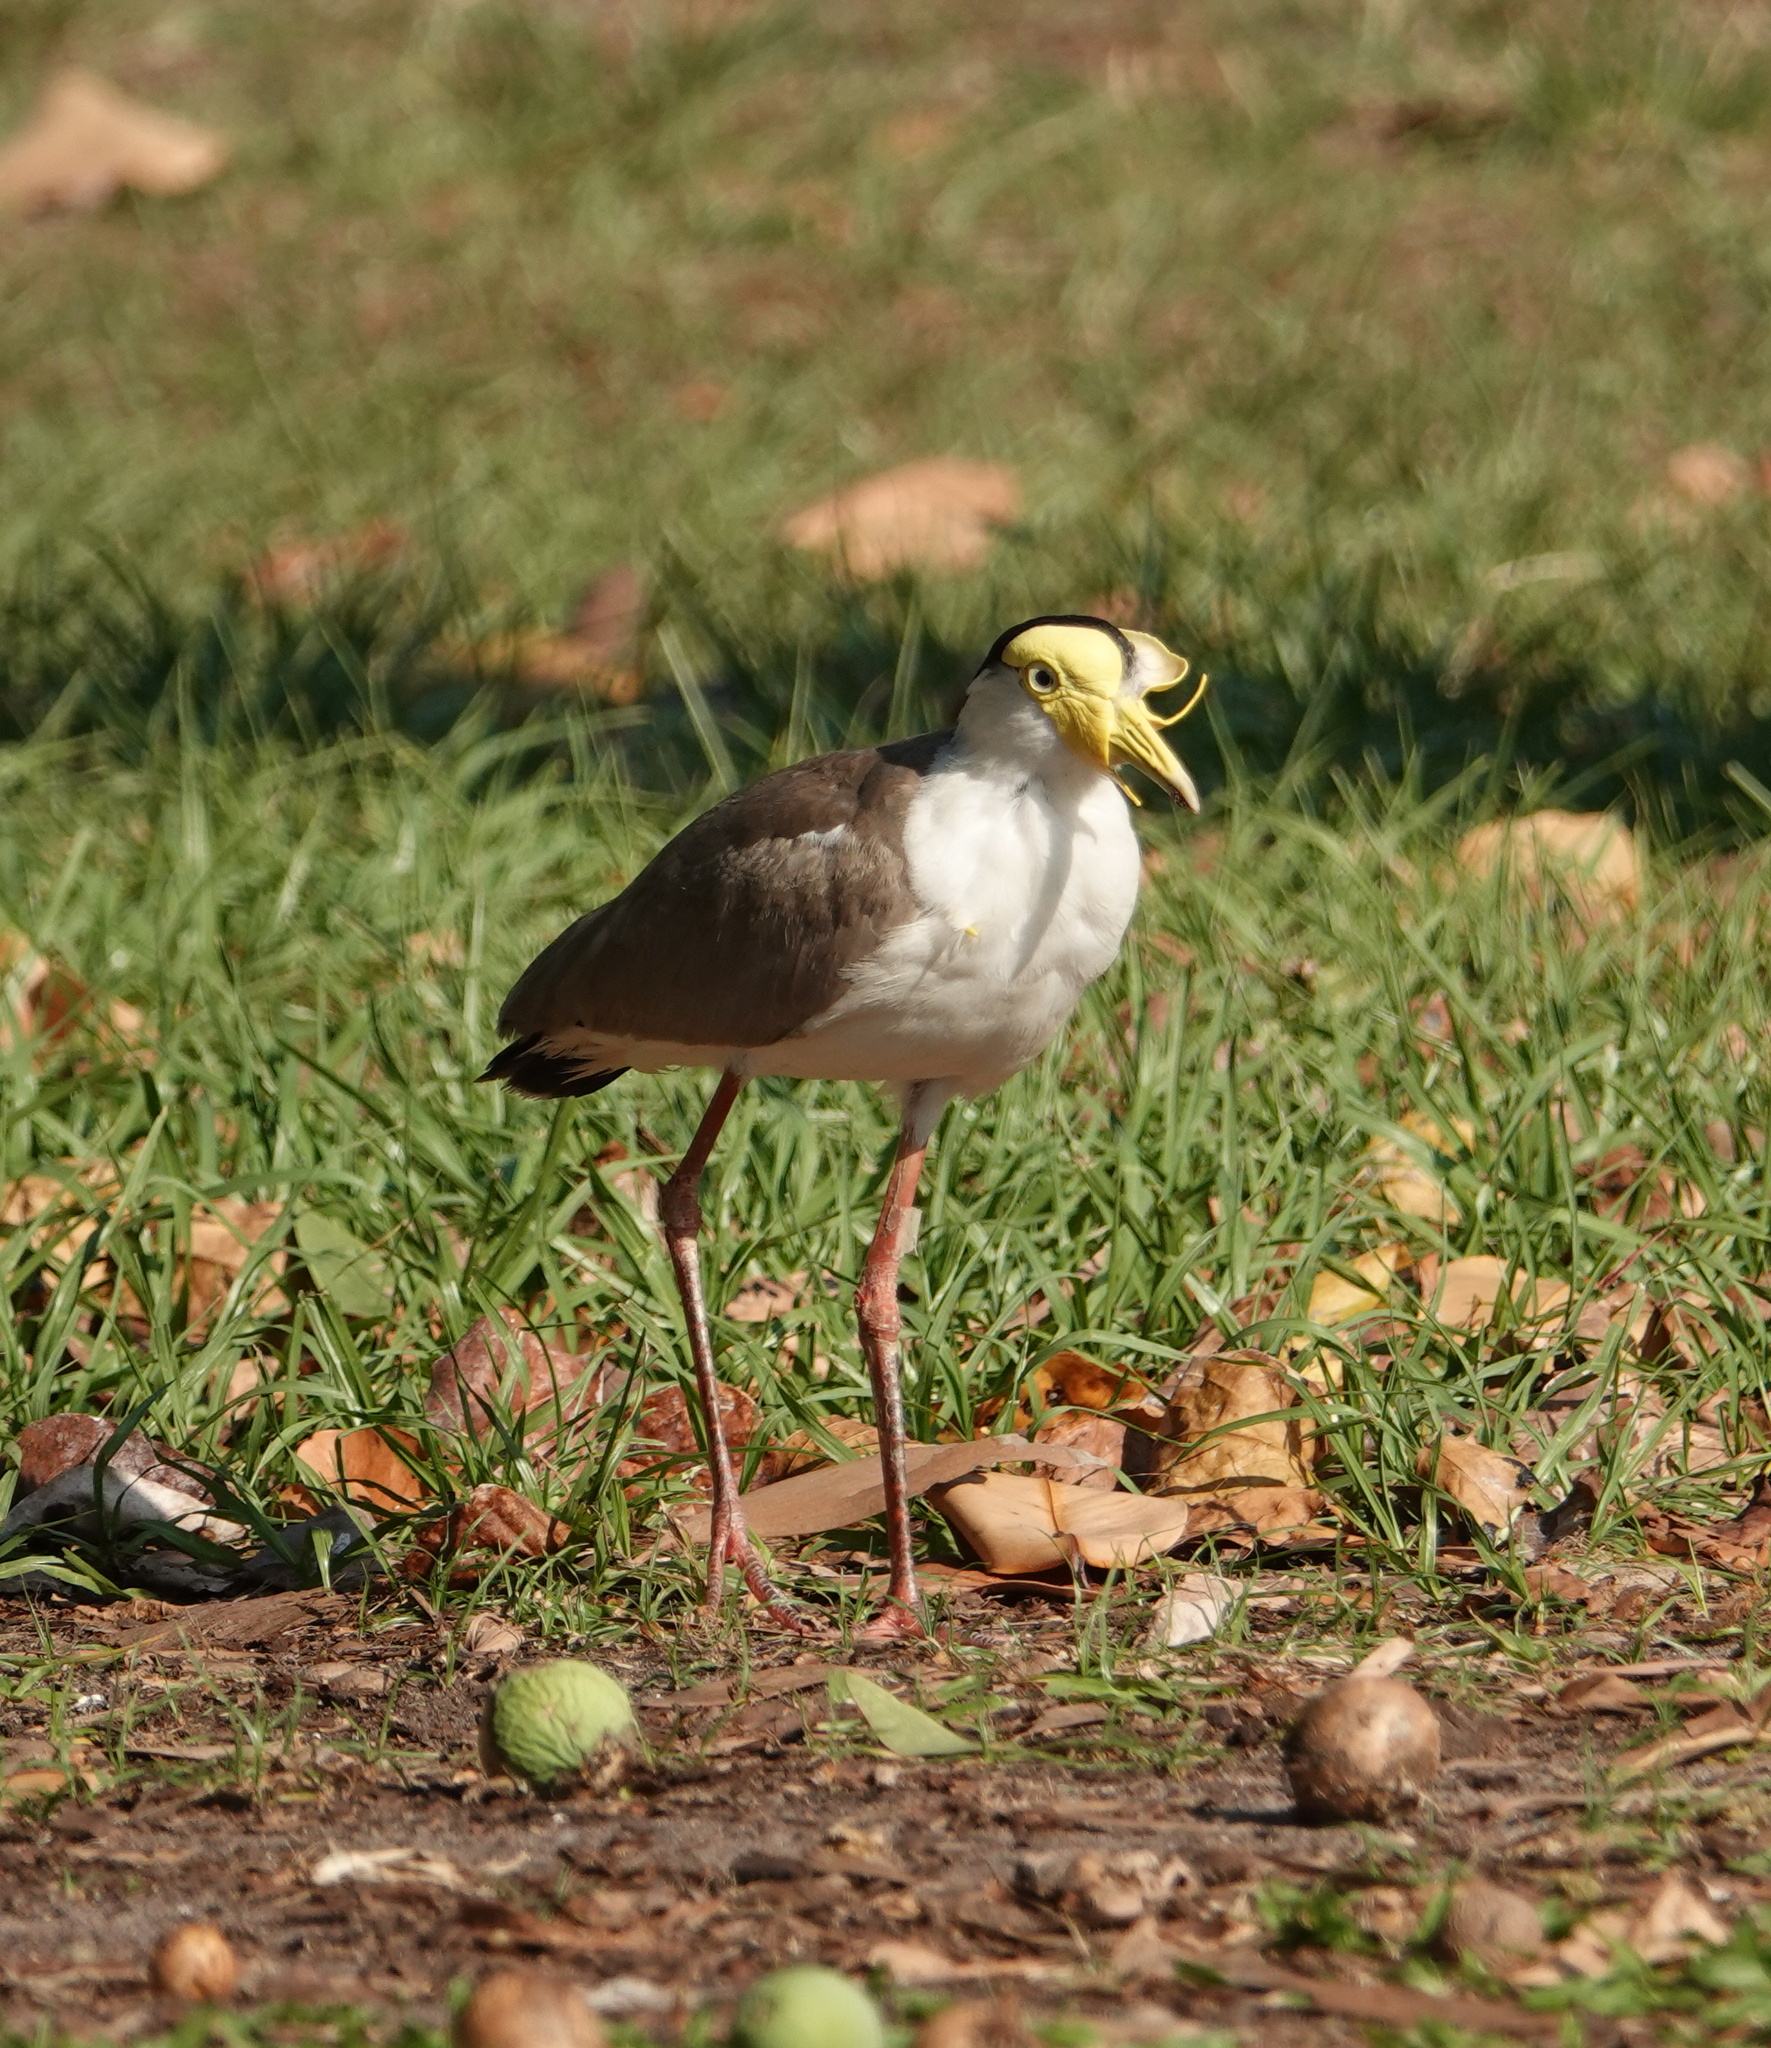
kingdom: Animalia
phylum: Chordata
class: Aves
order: Charadriiformes
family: Charadriidae
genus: Vanellus
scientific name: Vanellus miles
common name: Masked lapwing
